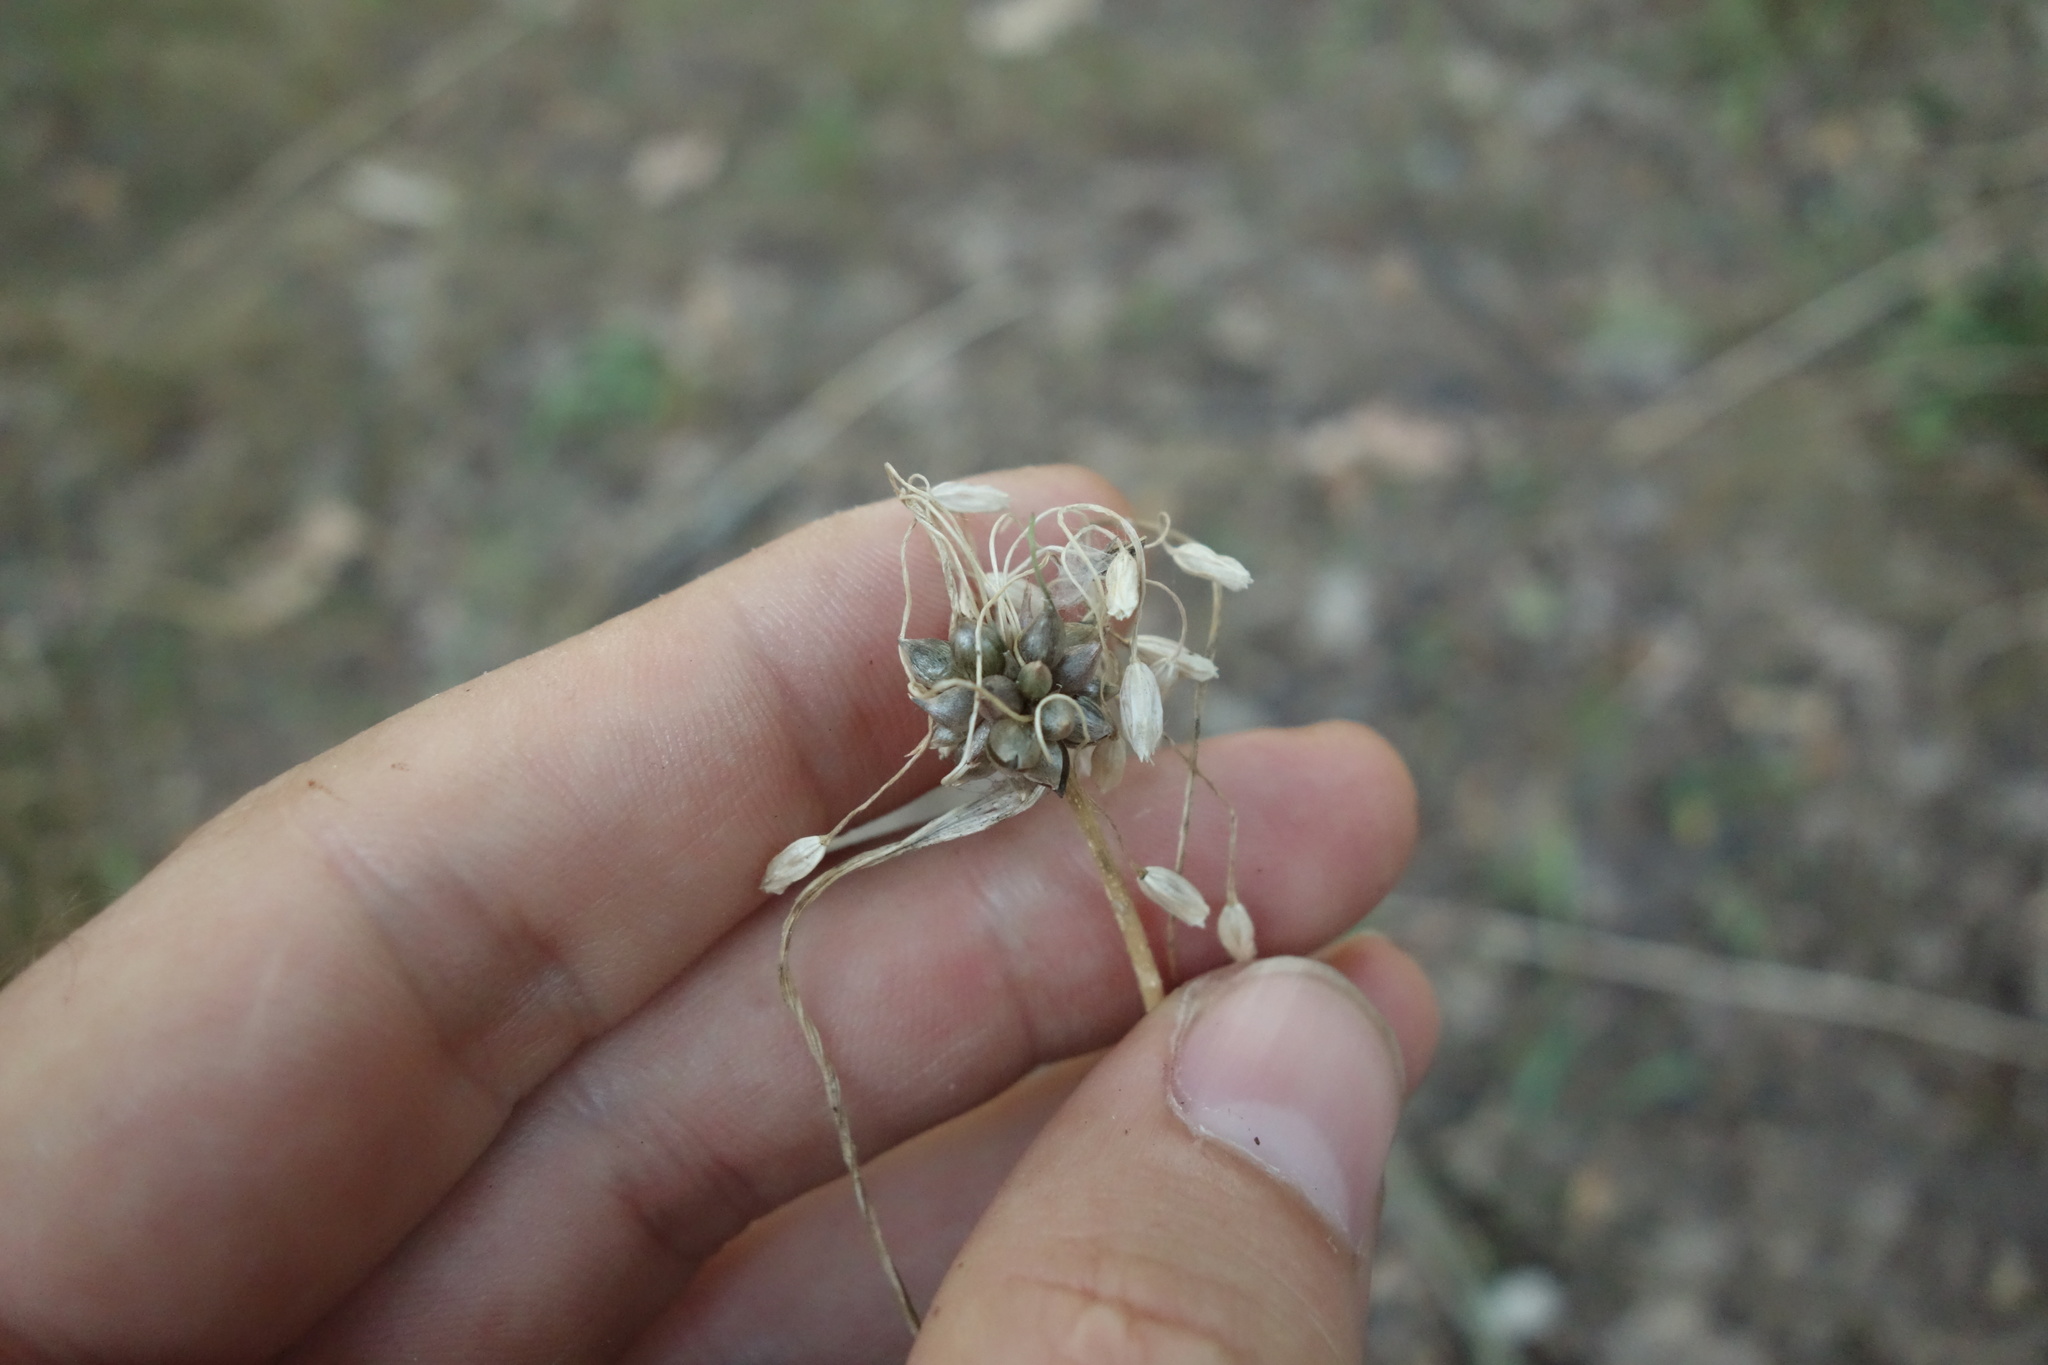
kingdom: Plantae
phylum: Tracheophyta
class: Liliopsida
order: Asparagales
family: Amaryllidaceae
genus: Allium
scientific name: Allium oleraceum
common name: Field garlic
